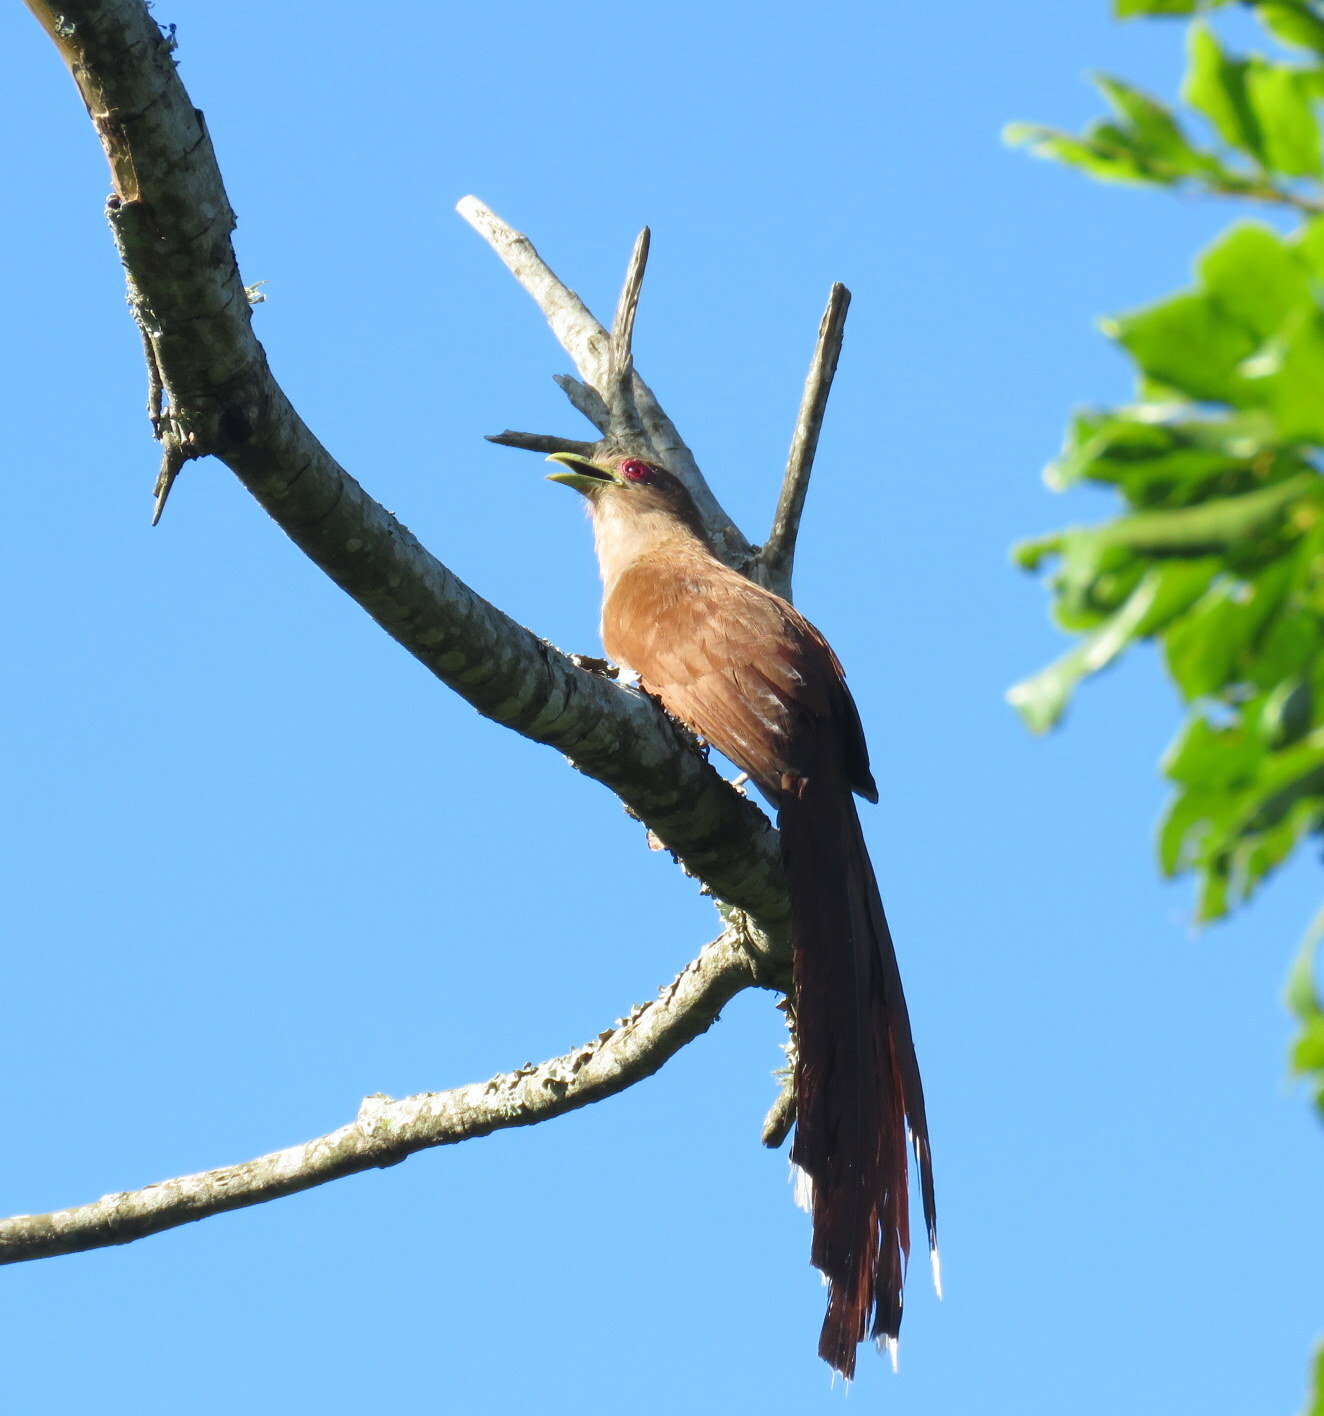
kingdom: Animalia
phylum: Chordata
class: Aves
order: Cuculiformes
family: Cuculidae
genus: Piaya
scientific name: Piaya cayana
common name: Squirrel cuckoo
